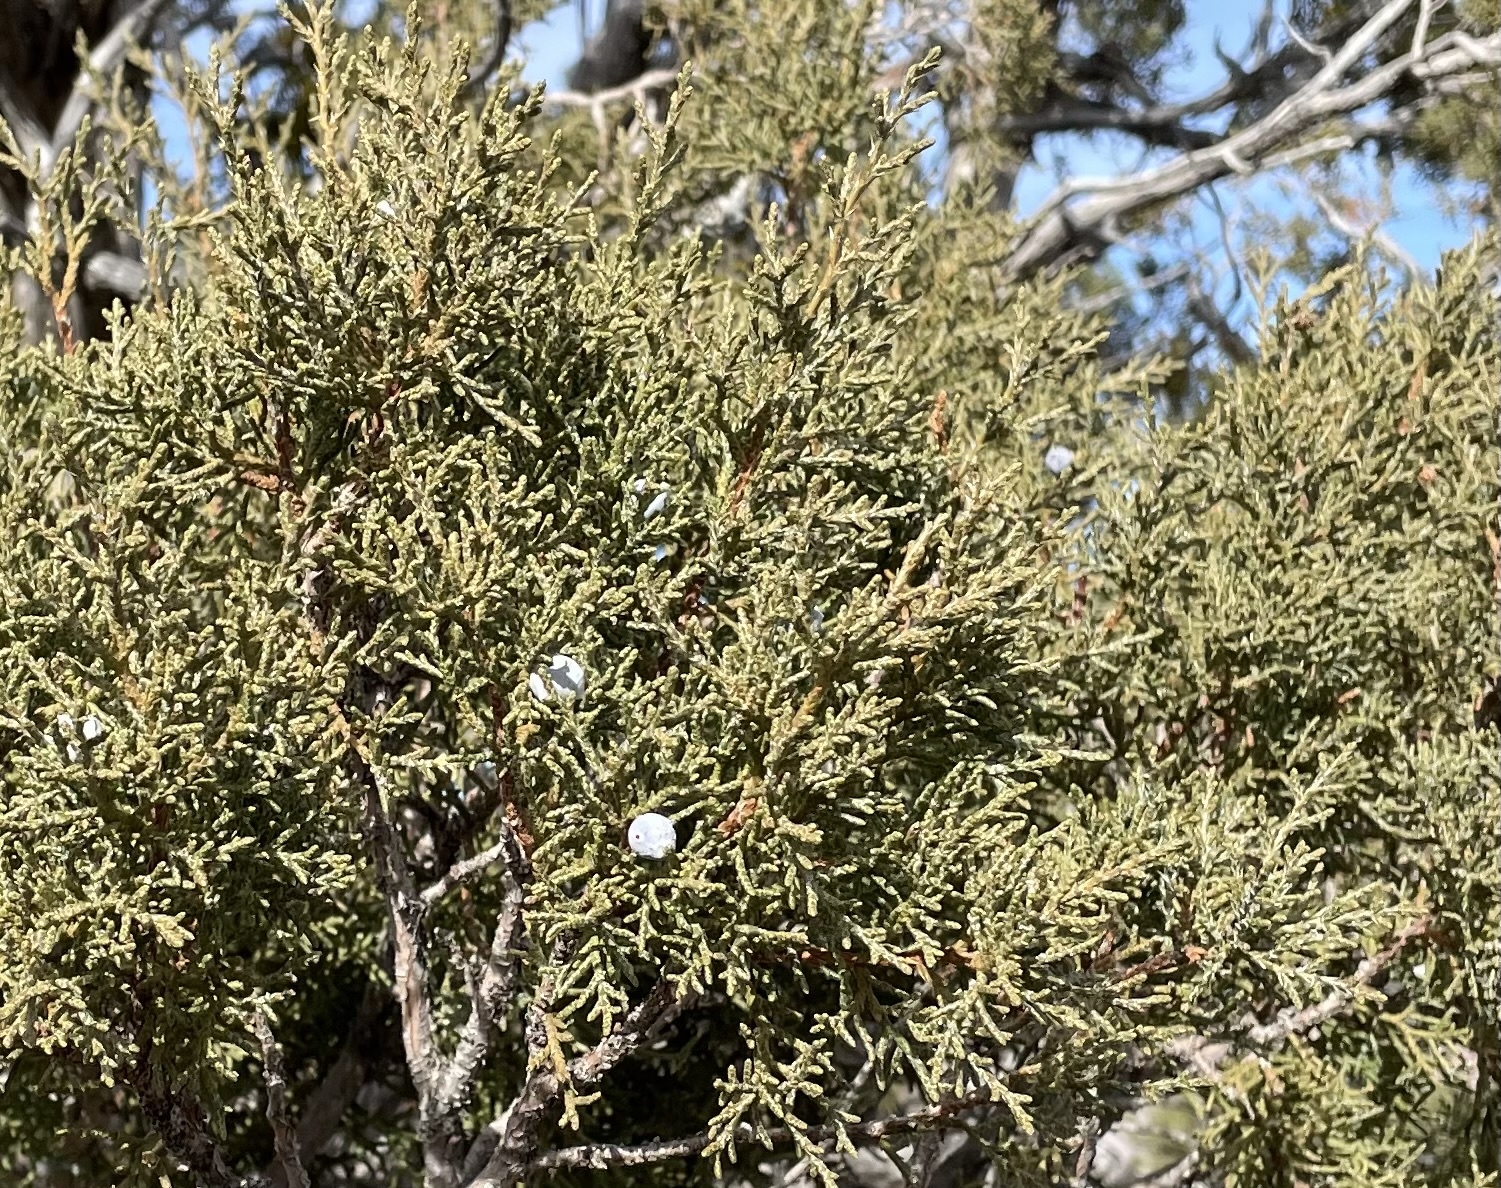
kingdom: Plantae
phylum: Tracheophyta
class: Pinopsida
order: Pinales
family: Cupressaceae
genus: Juniperus
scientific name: Juniperus osteosperma
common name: Utah juniper
